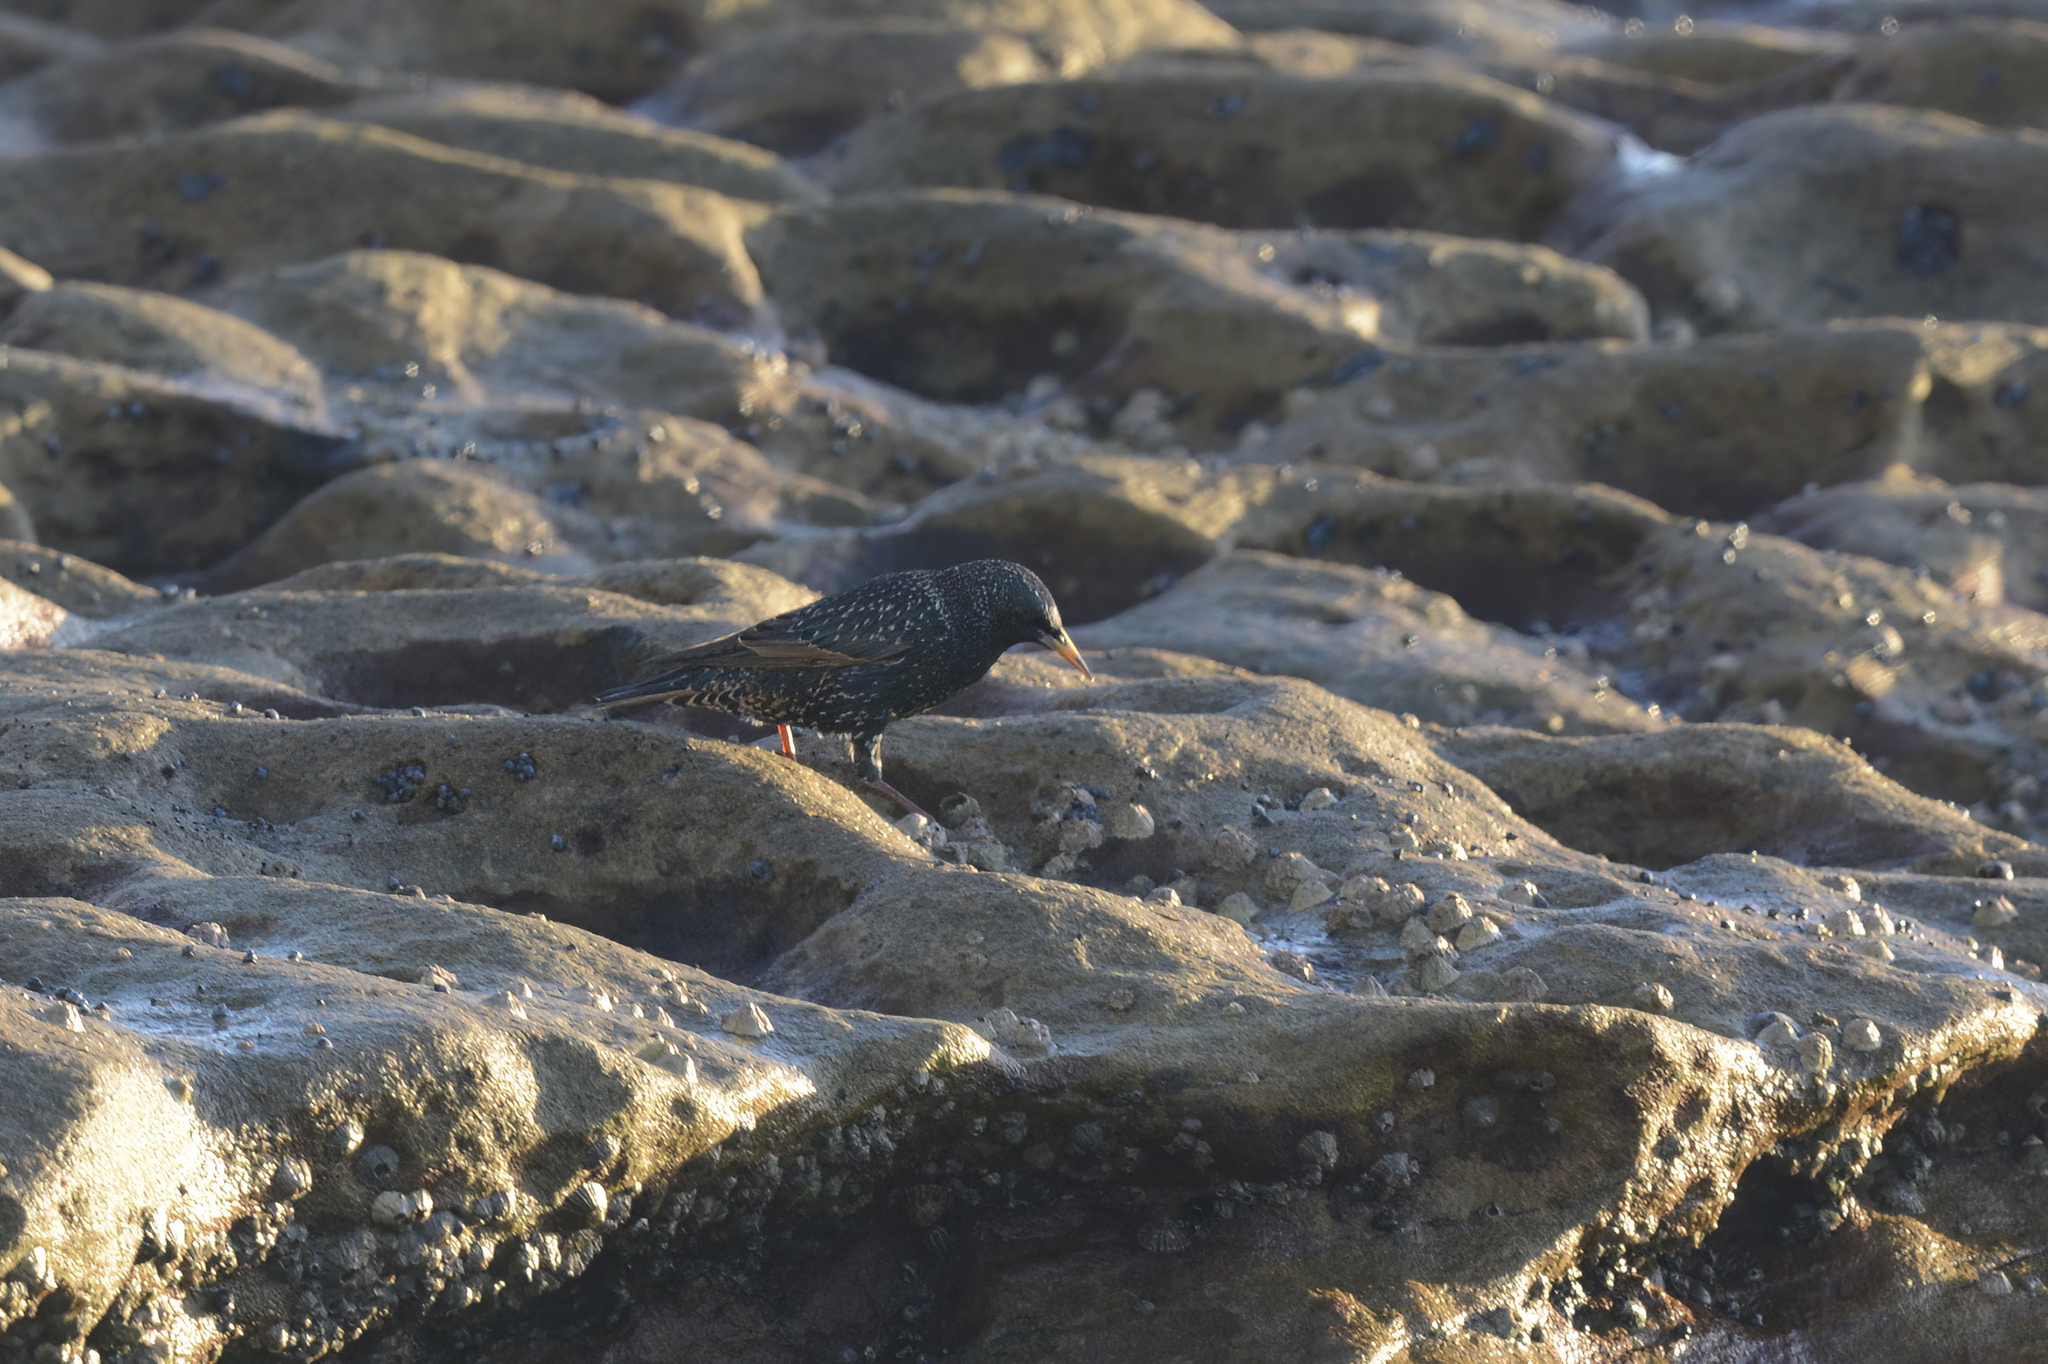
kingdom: Animalia
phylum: Chordata
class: Aves
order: Passeriformes
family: Sturnidae
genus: Sturnus
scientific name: Sturnus vulgaris
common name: Common starling
